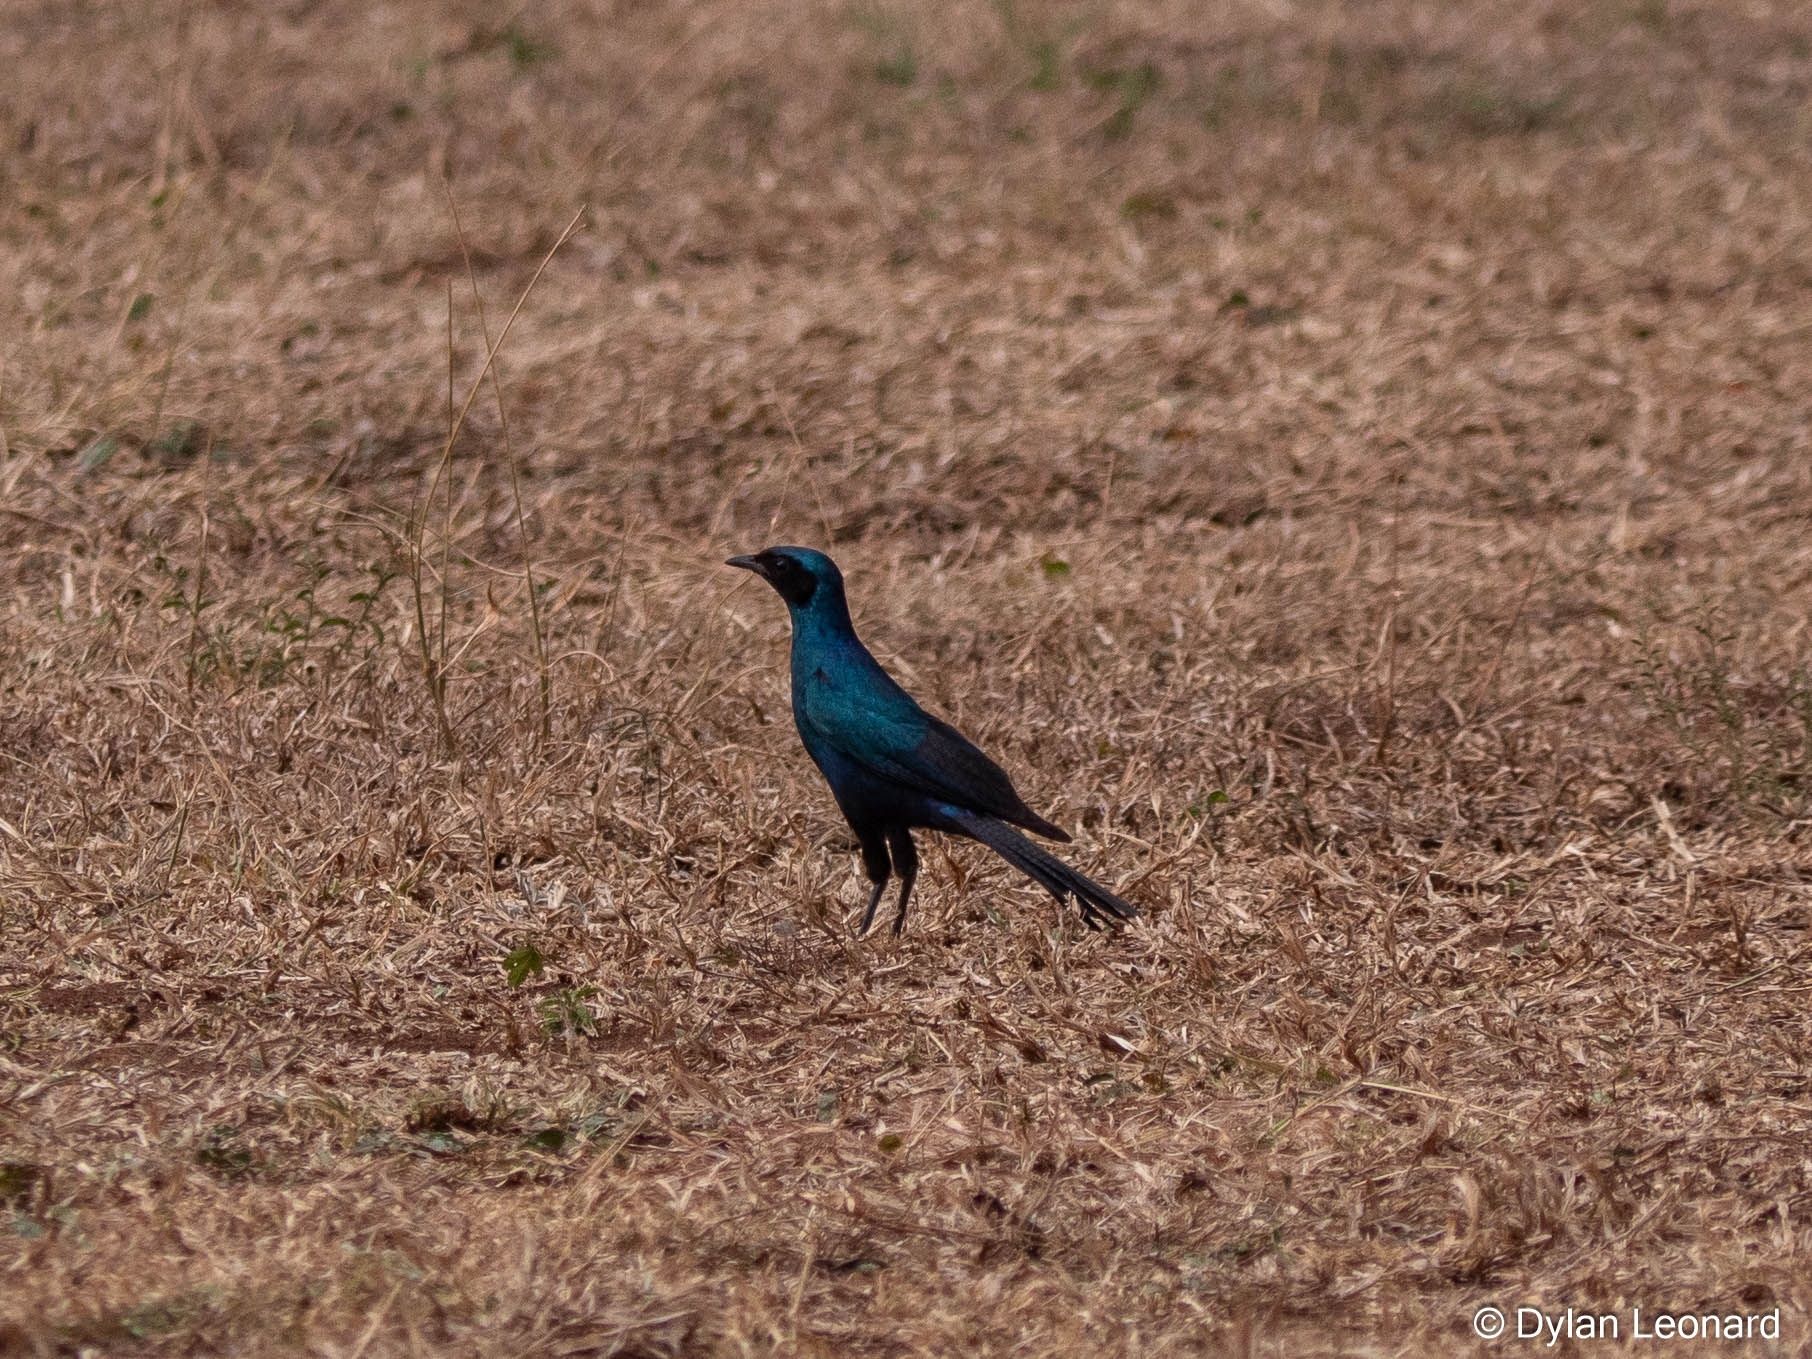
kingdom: Animalia
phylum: Chordata
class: Aves
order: Passeriformes
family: Sturnidae
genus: Lamprotornis
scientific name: Lamprotornis australis
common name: Burchell's starling
